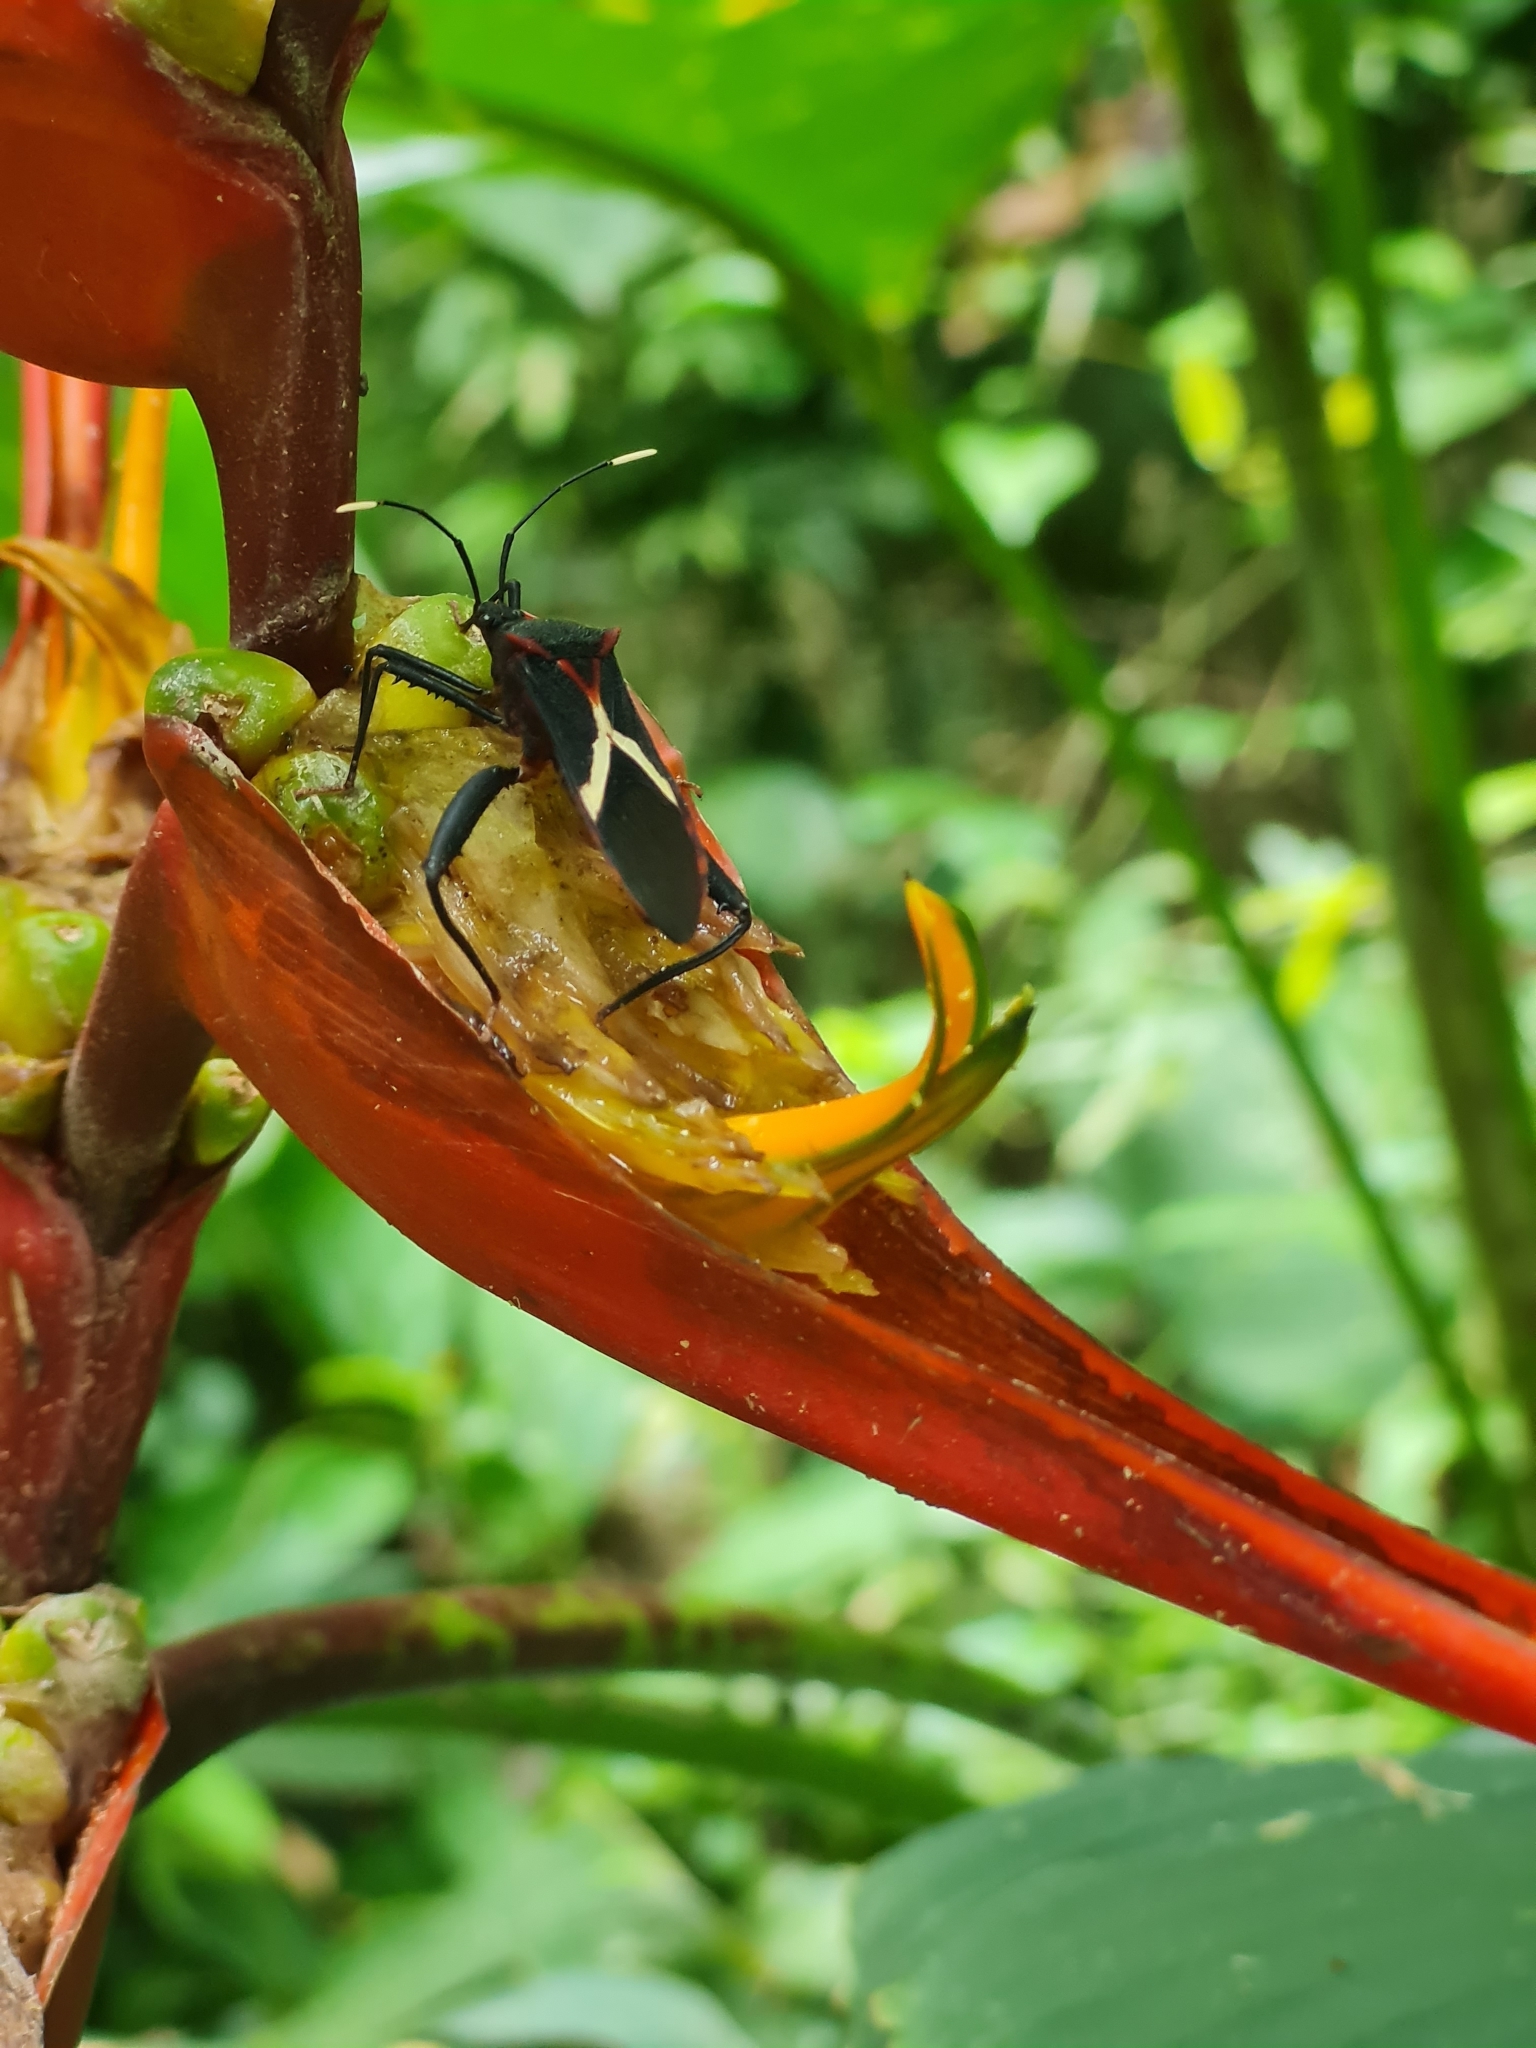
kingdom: Animalia
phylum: Arthropoda
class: Insecta
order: Hemiptera
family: Coreidae
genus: Leptoscelis
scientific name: Leptoscelis
